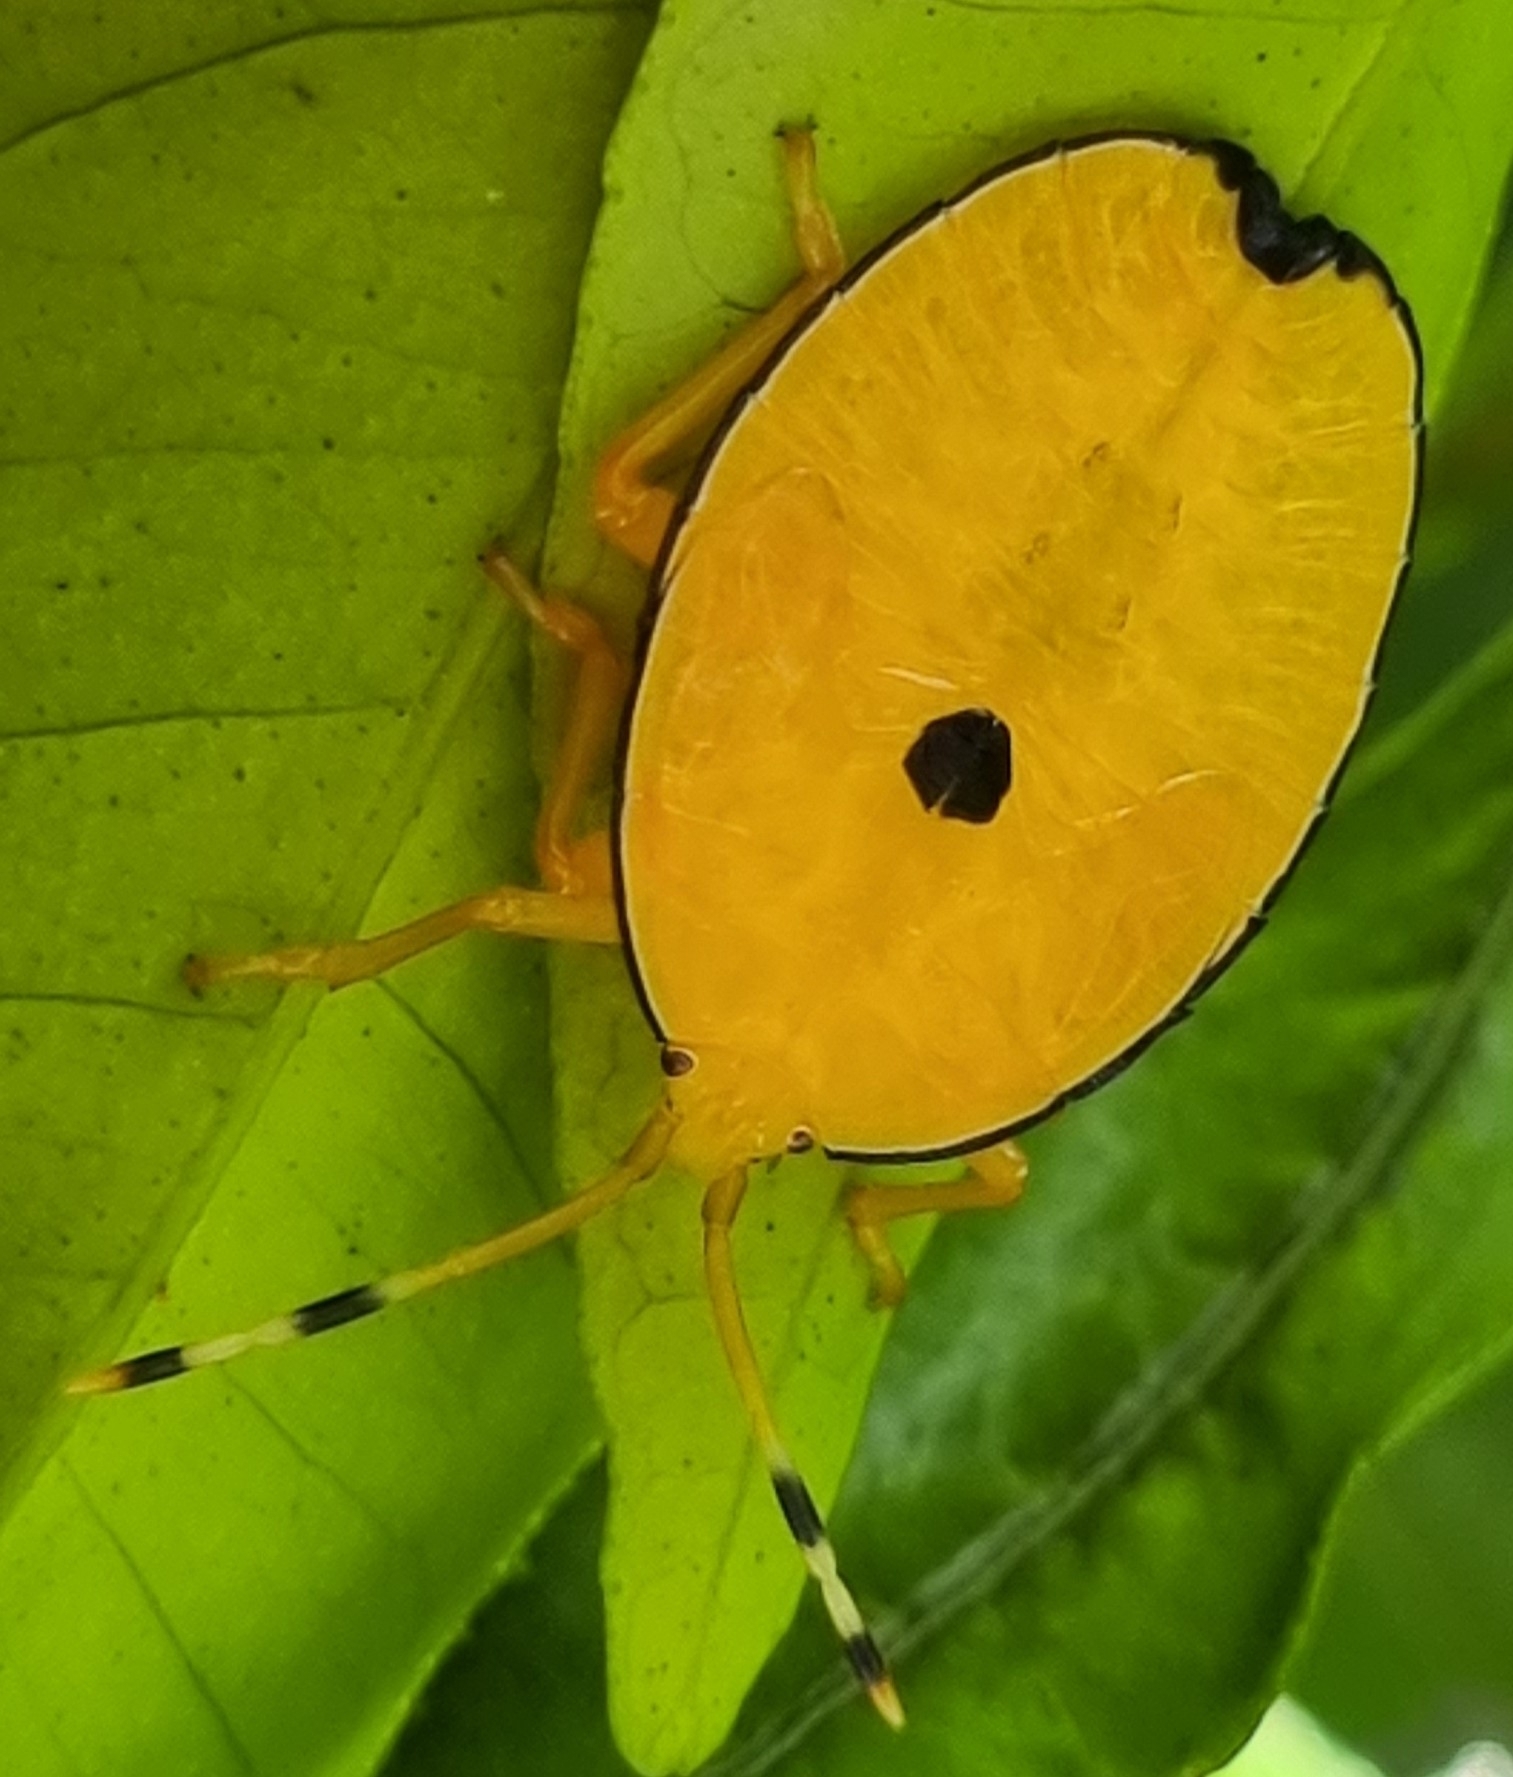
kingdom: Animalia
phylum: Arthropoda
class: Insecta
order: Hemiptera
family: Tessaratomidae
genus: Musgraveia
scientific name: Musgraveia sulciventris
